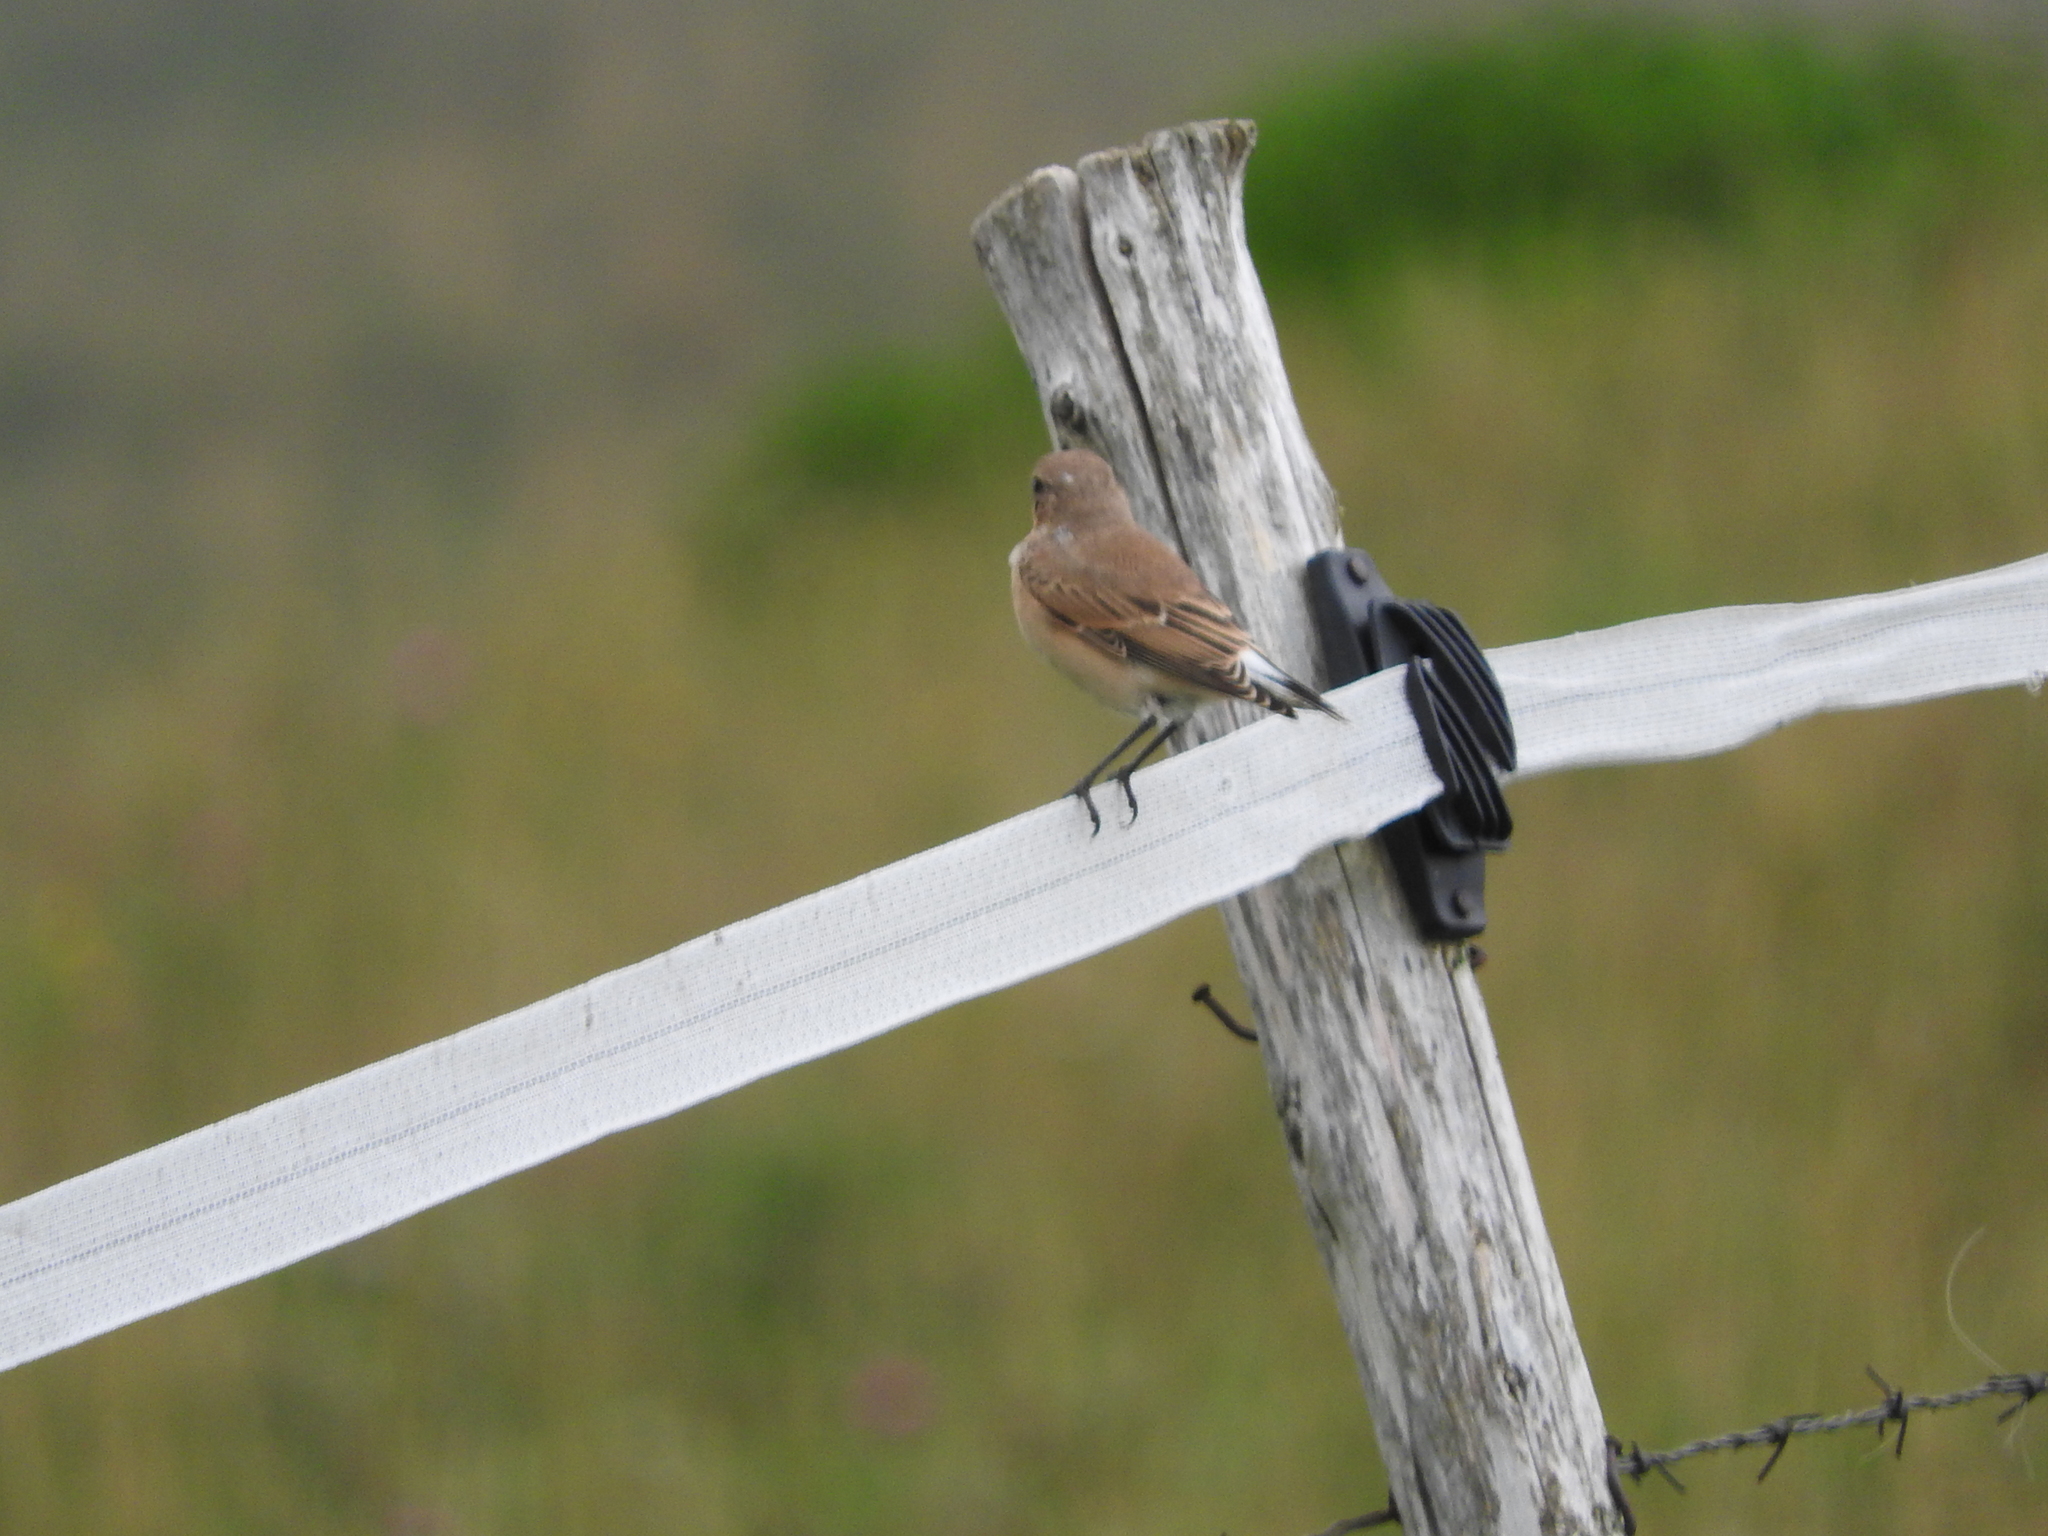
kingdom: Animalia
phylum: Chordata
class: Aves
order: Passeriformes
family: Muscicapidae
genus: Oenanthe
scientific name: Oenanthe oenanthe
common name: Northern wheatear
